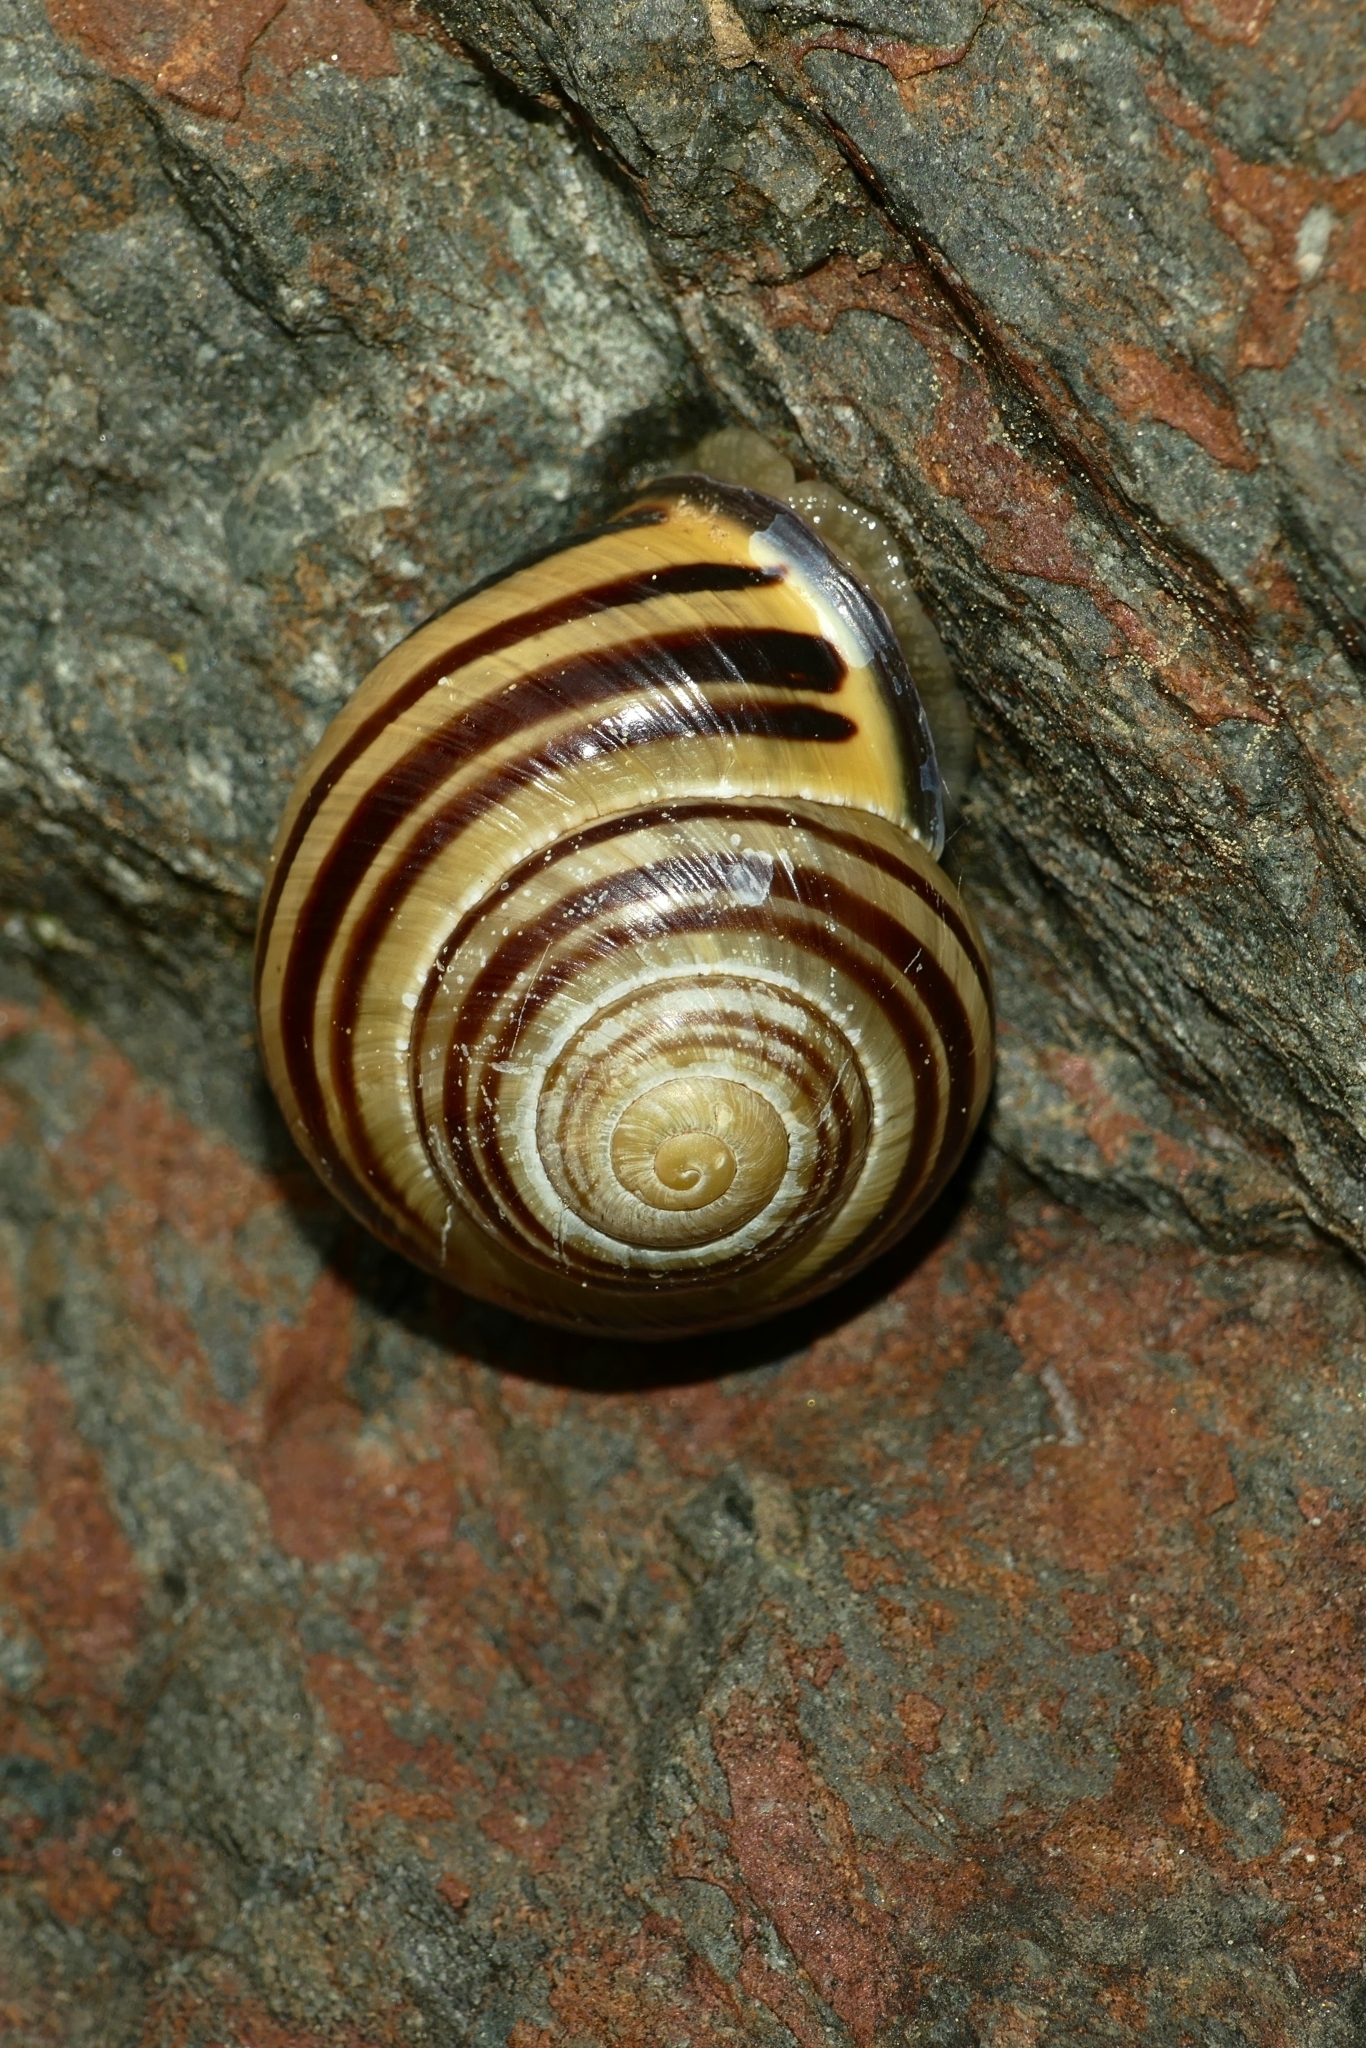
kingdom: Animalia
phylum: Mollusca
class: Gastropoda
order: Stylommatophora
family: Helicidae
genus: Cepaea
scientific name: Cepaea nemoralis
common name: Grovesnail
